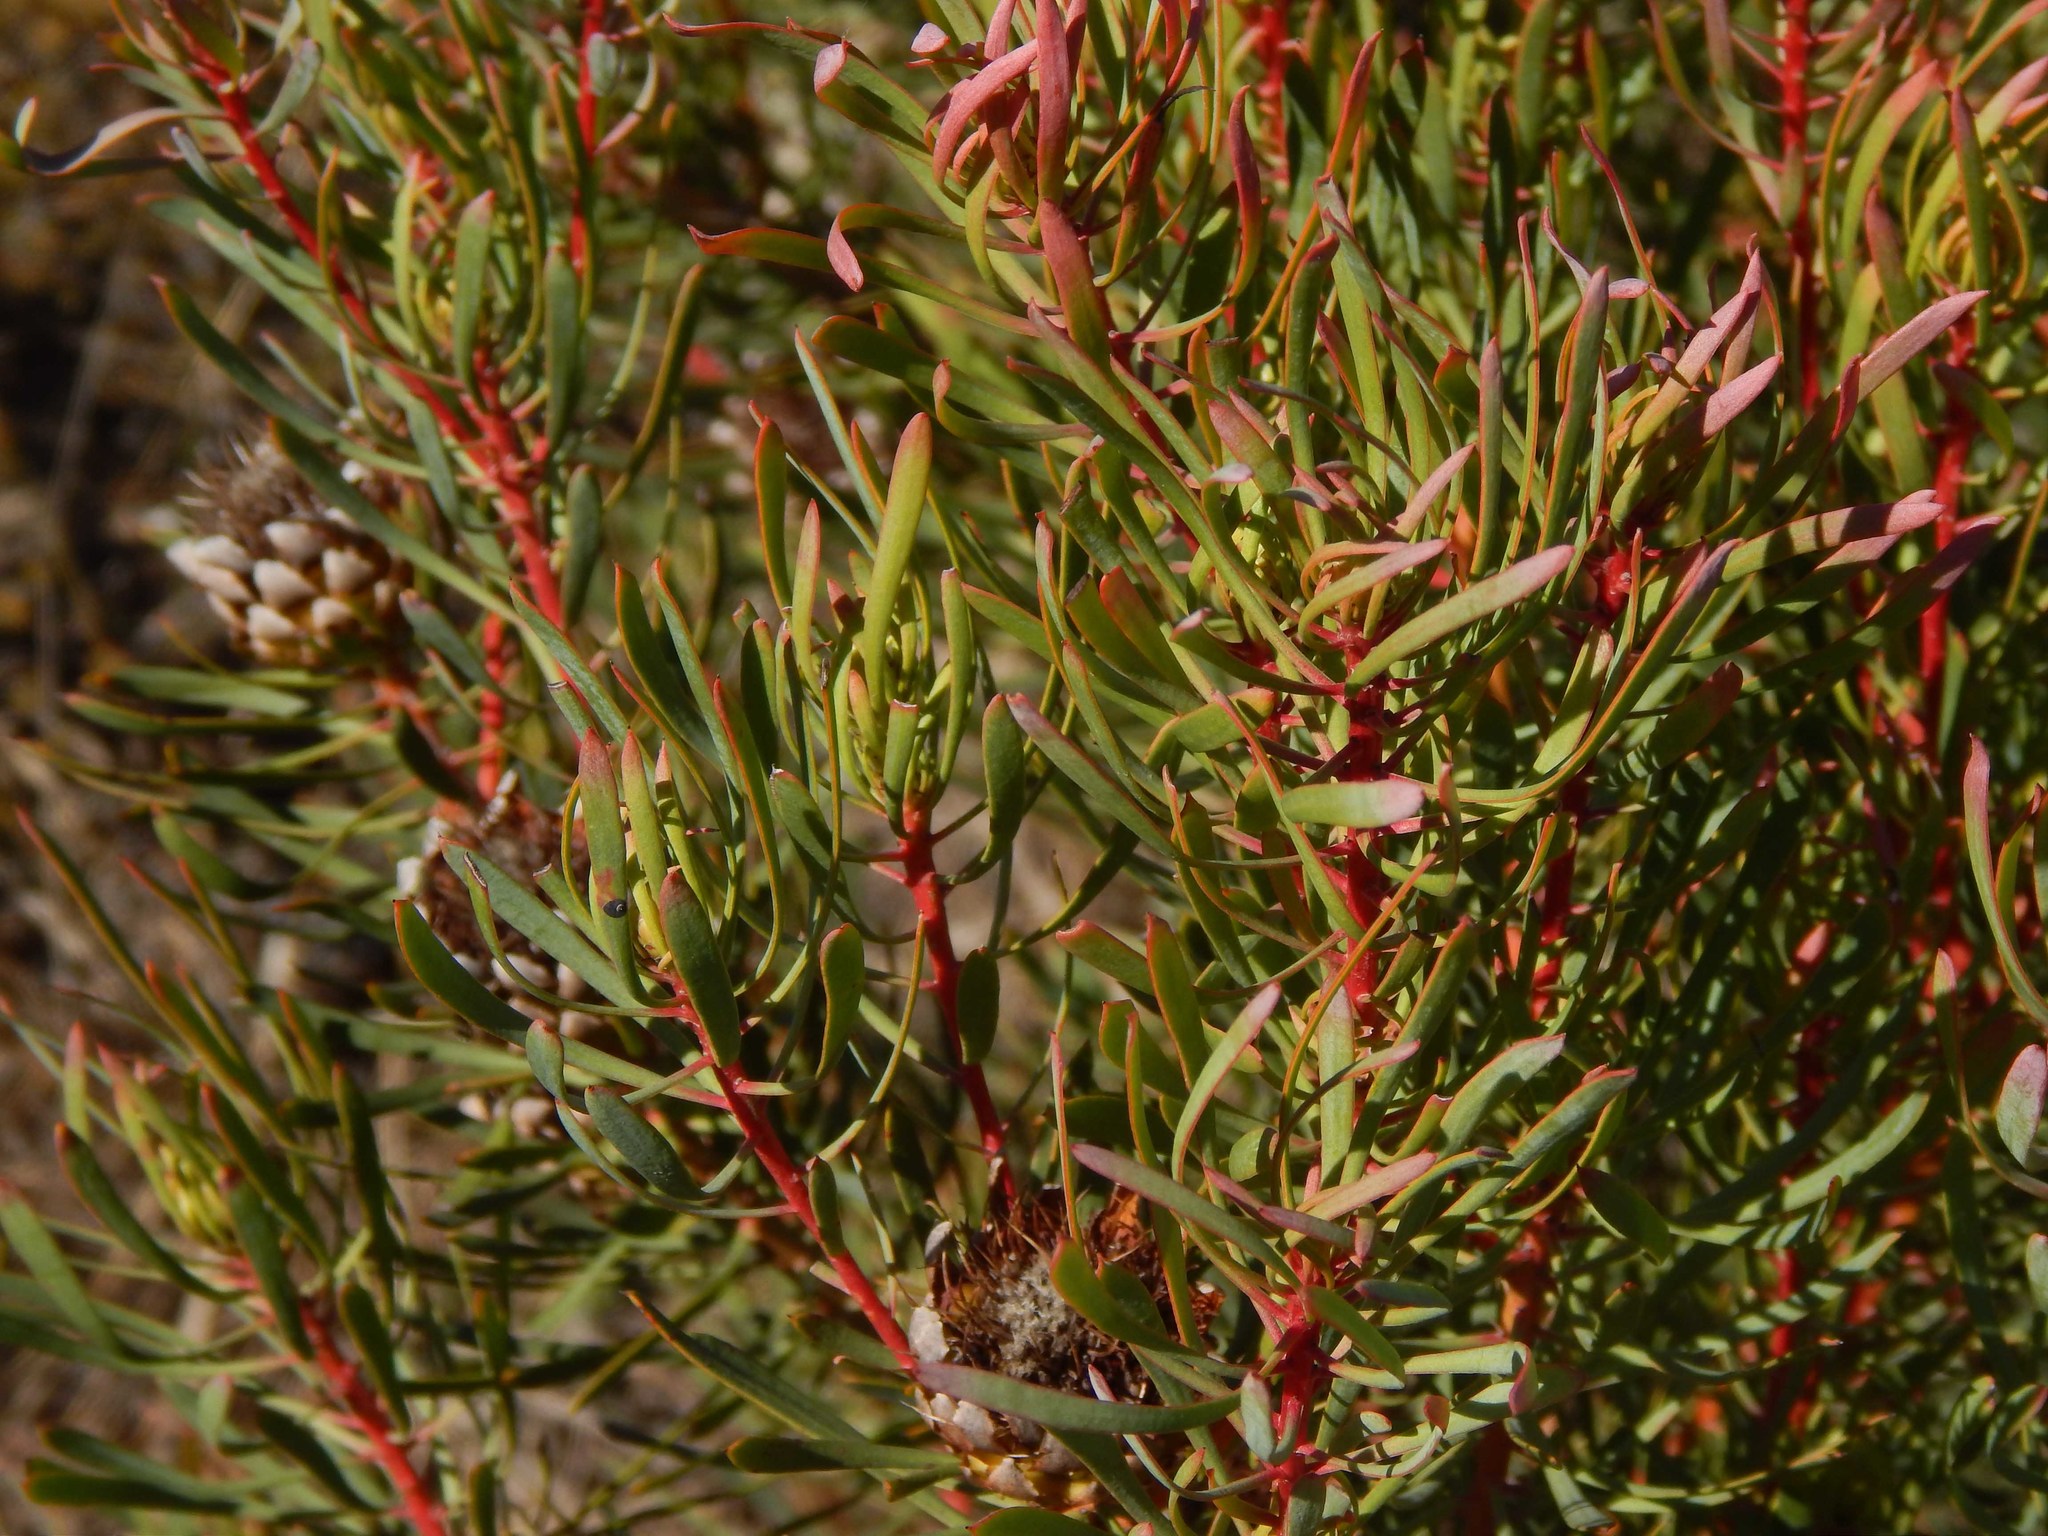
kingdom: Plantae
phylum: Tracheophyta
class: Magnoliopsida
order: Proteales
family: Proteaceae
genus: Protea
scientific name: Protea scolymocephala
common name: Thistle sugarbush
